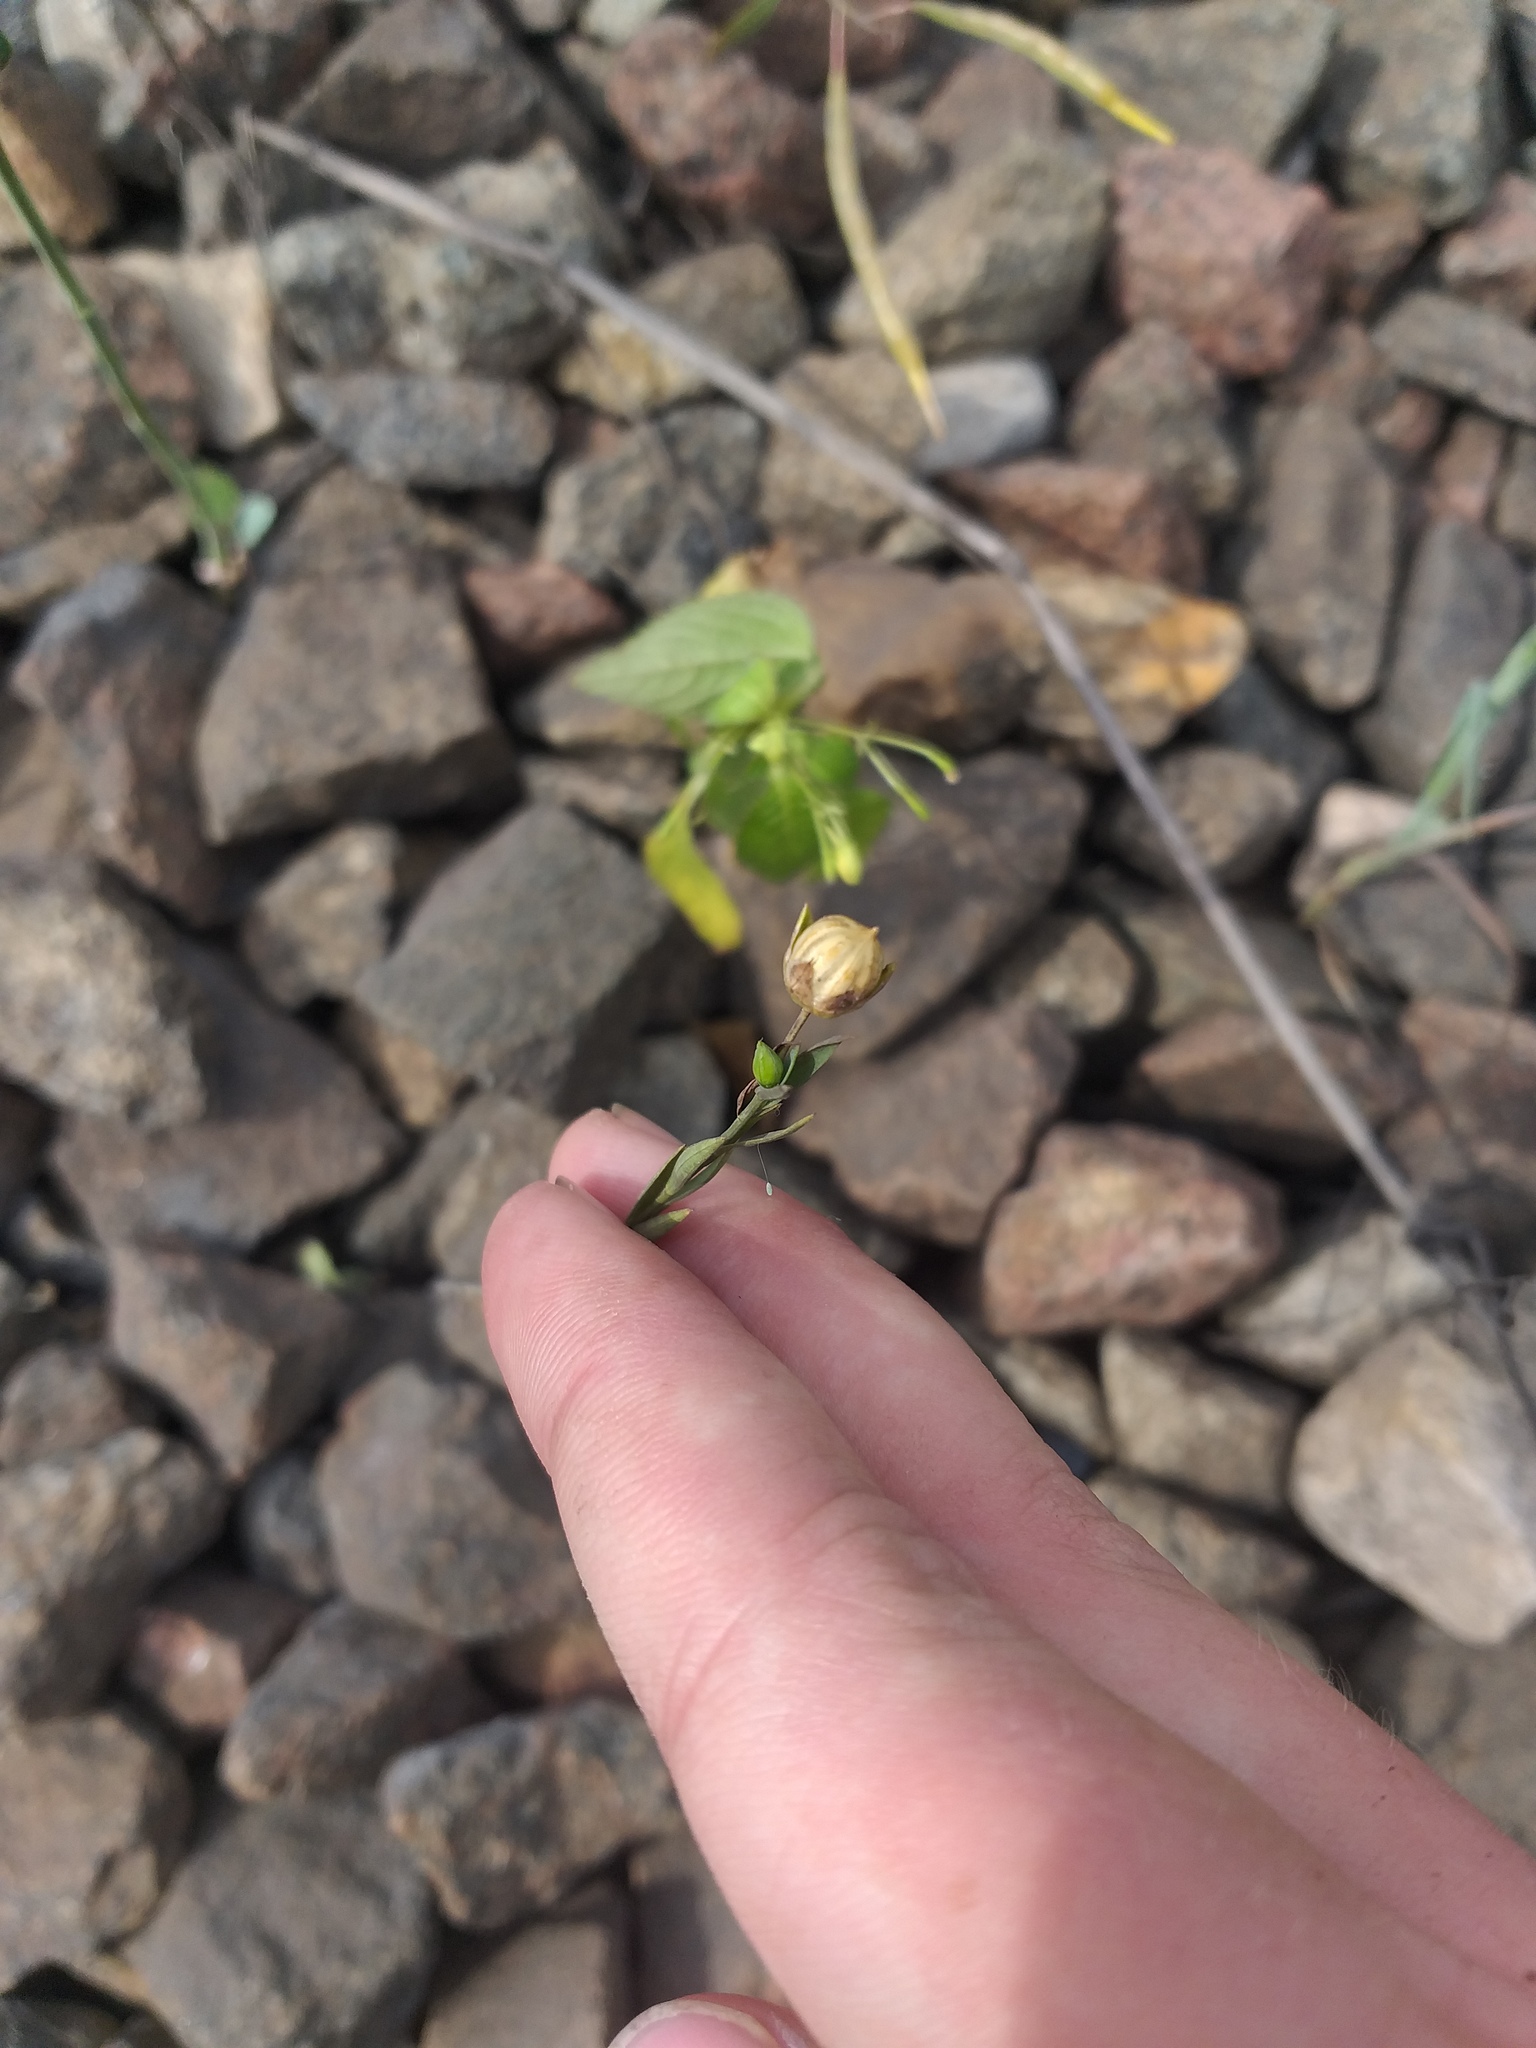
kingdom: Plantae
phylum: Tracheophyta
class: Magnoliopsida
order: Malpighiales
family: Linaceae
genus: Linum
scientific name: Linum usitatissimum
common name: Flax
